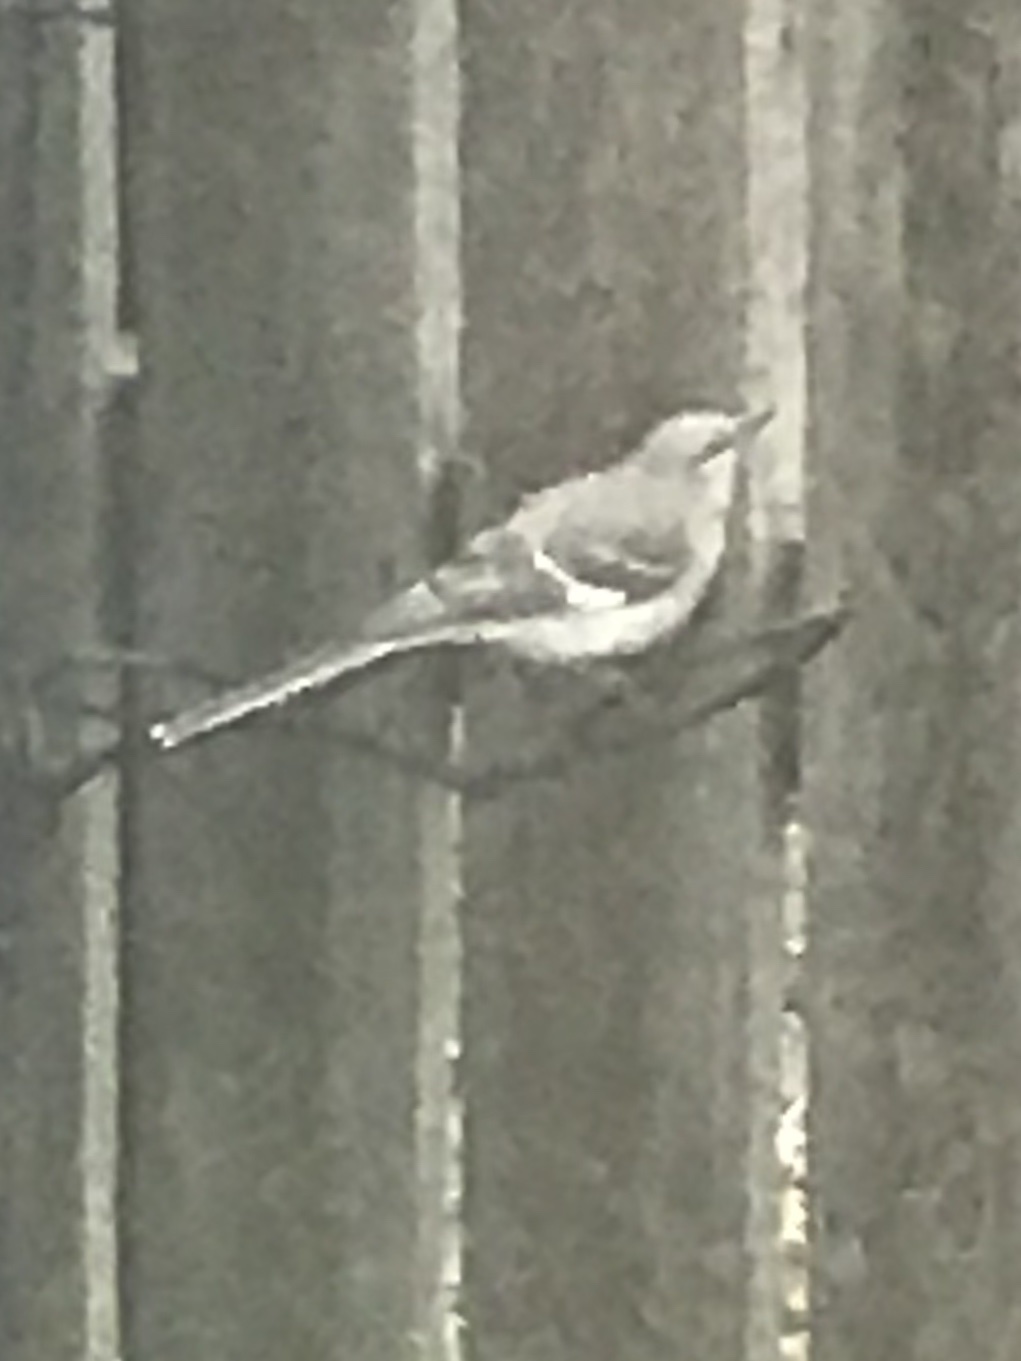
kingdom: Animalia
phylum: Chordata
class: Aves
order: Passeriformes
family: Mimidae
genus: Mimus
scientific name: Mimus polyglottos
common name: Northern mockingbird
